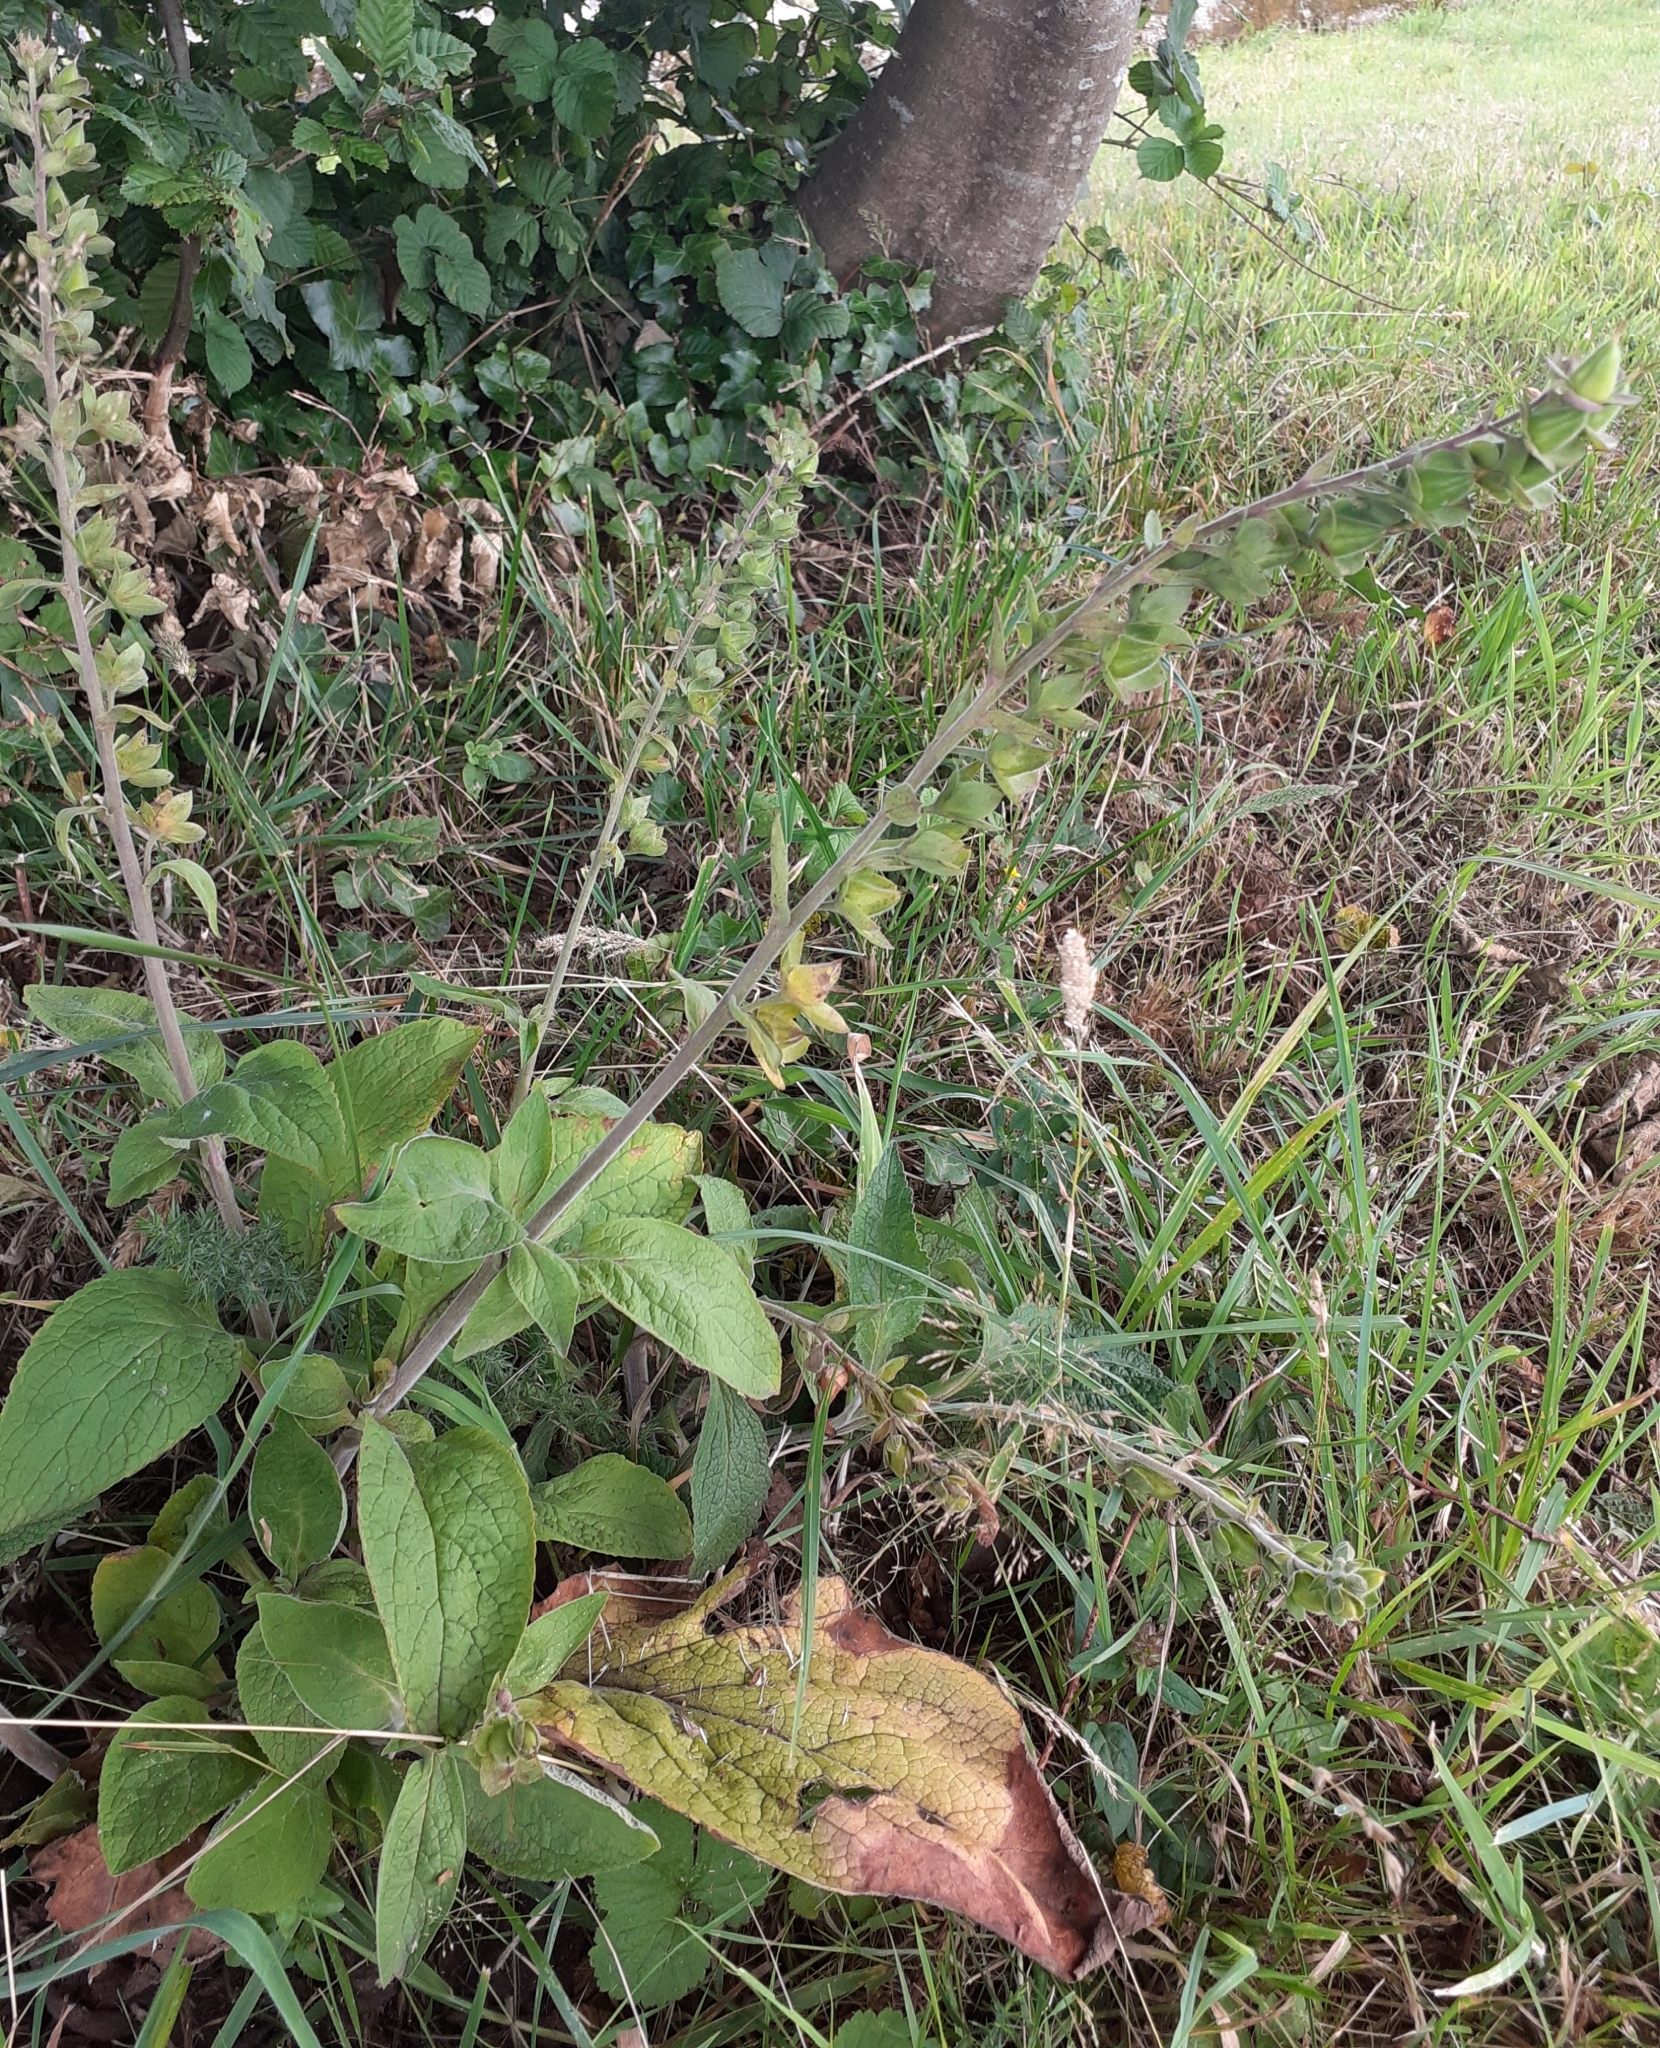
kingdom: Plantae
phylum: Tracheophyta
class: Magnoliopsida
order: Lamiales
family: Lamiaceae
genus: Teucrium
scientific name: Teucrium scorodonia
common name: Woodland germander
